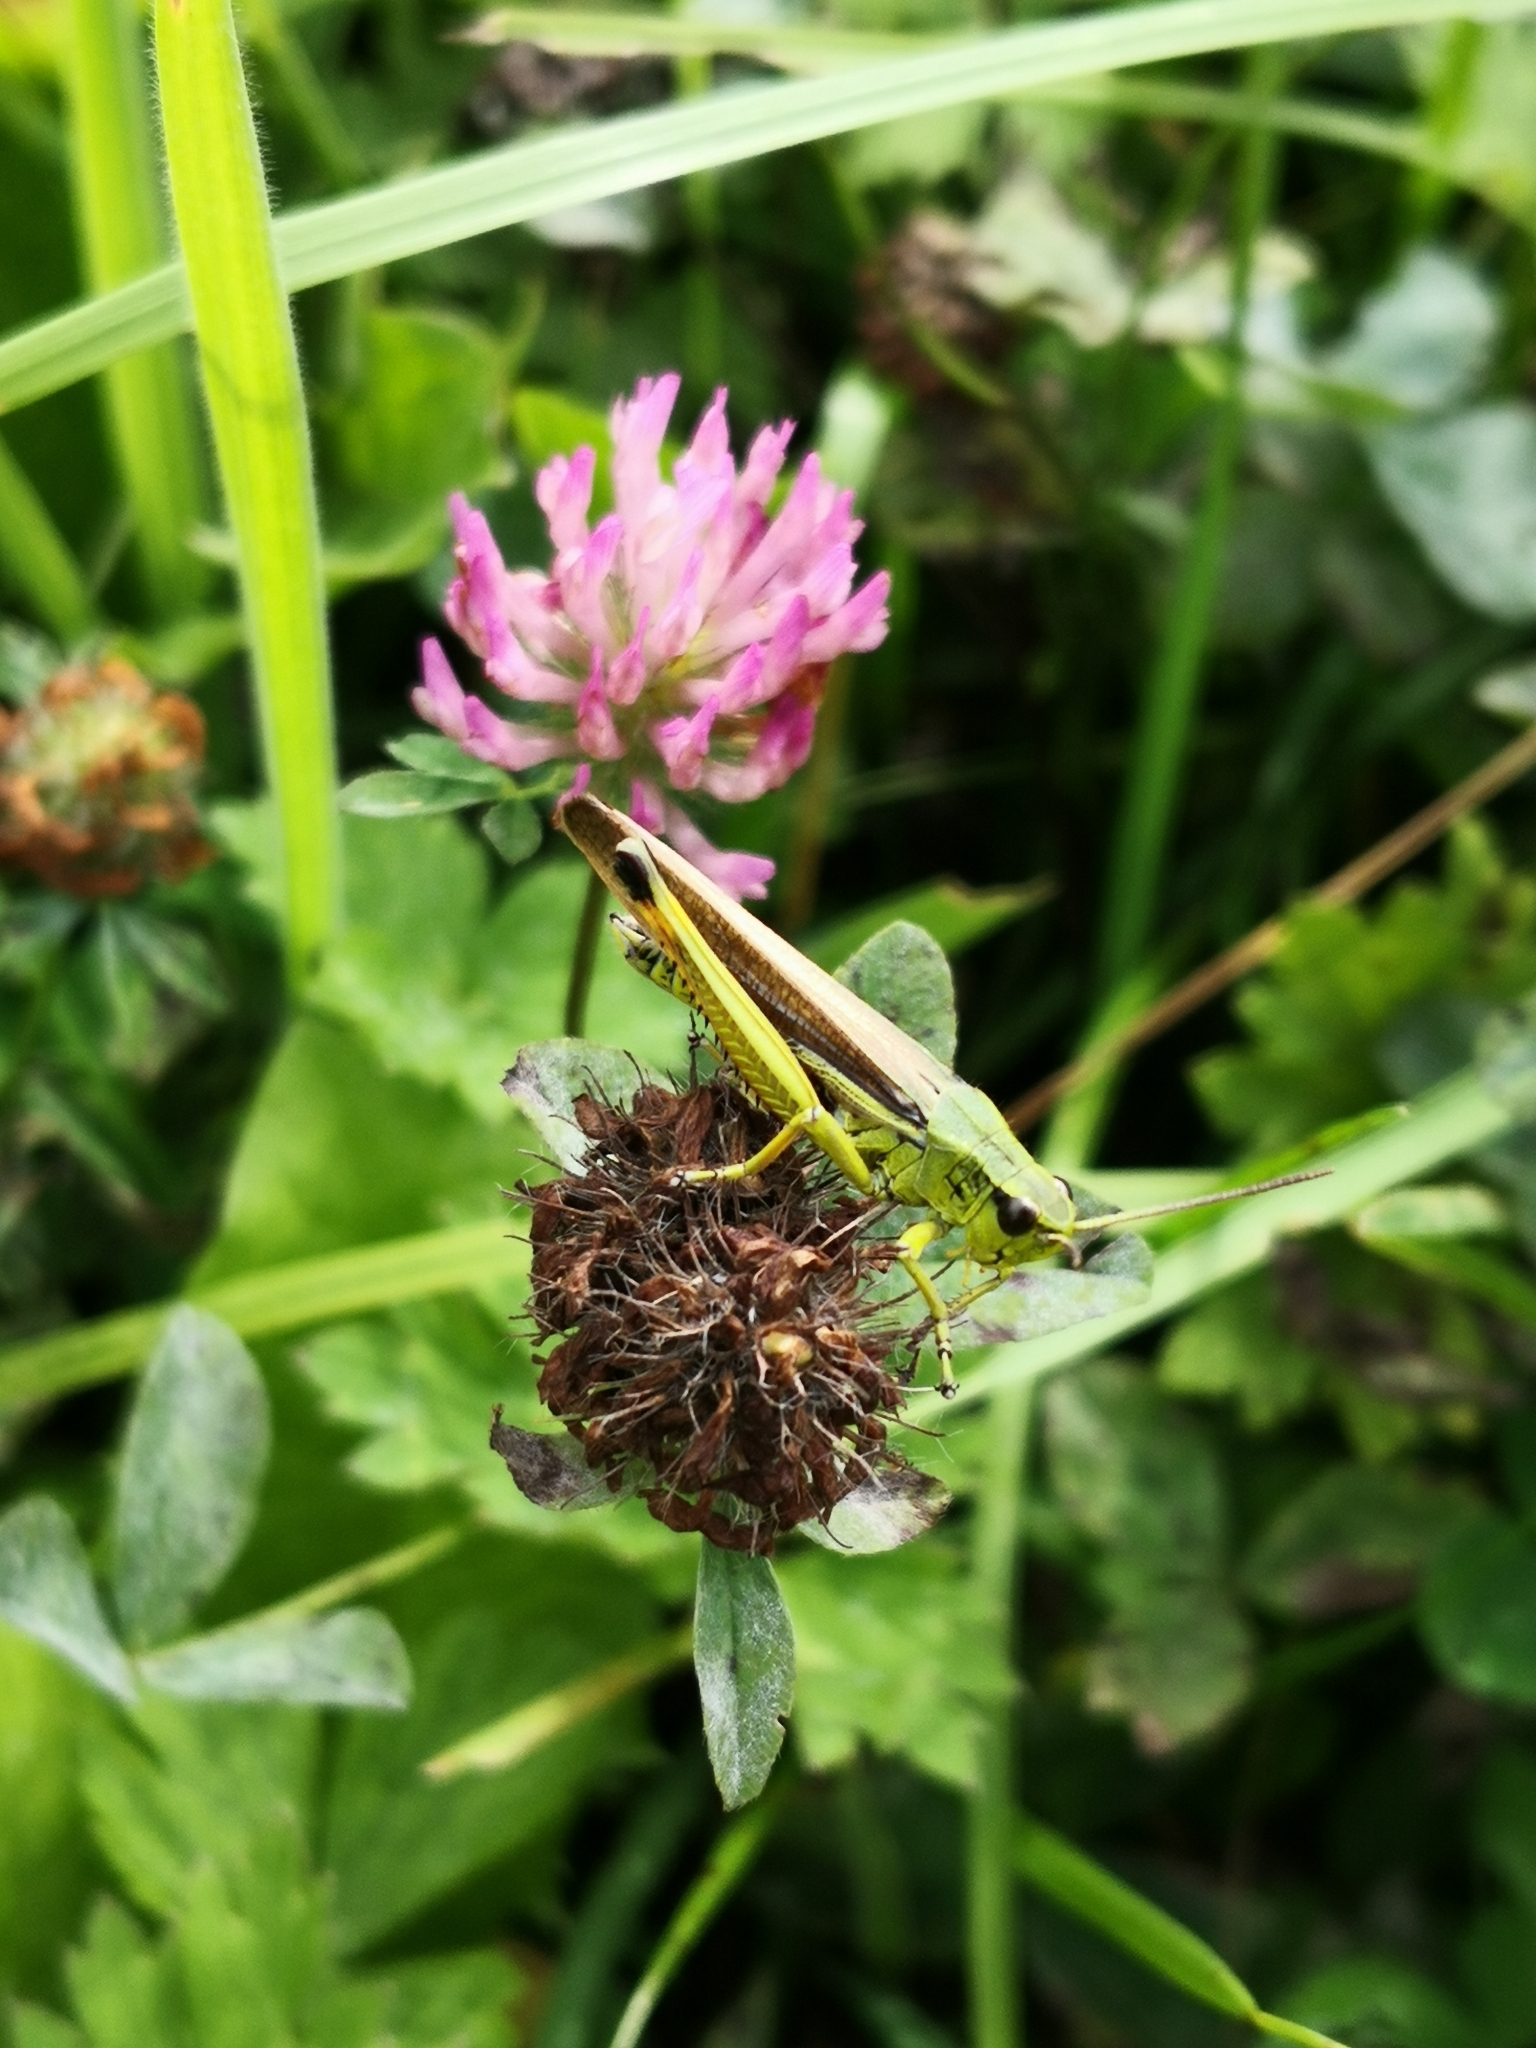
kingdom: Animalia
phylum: Arthropoda
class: Insecta
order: Orthoptera
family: Acrididae
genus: Stethophyma
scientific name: Stethophyma grossum
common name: Large marsh grasshopper
